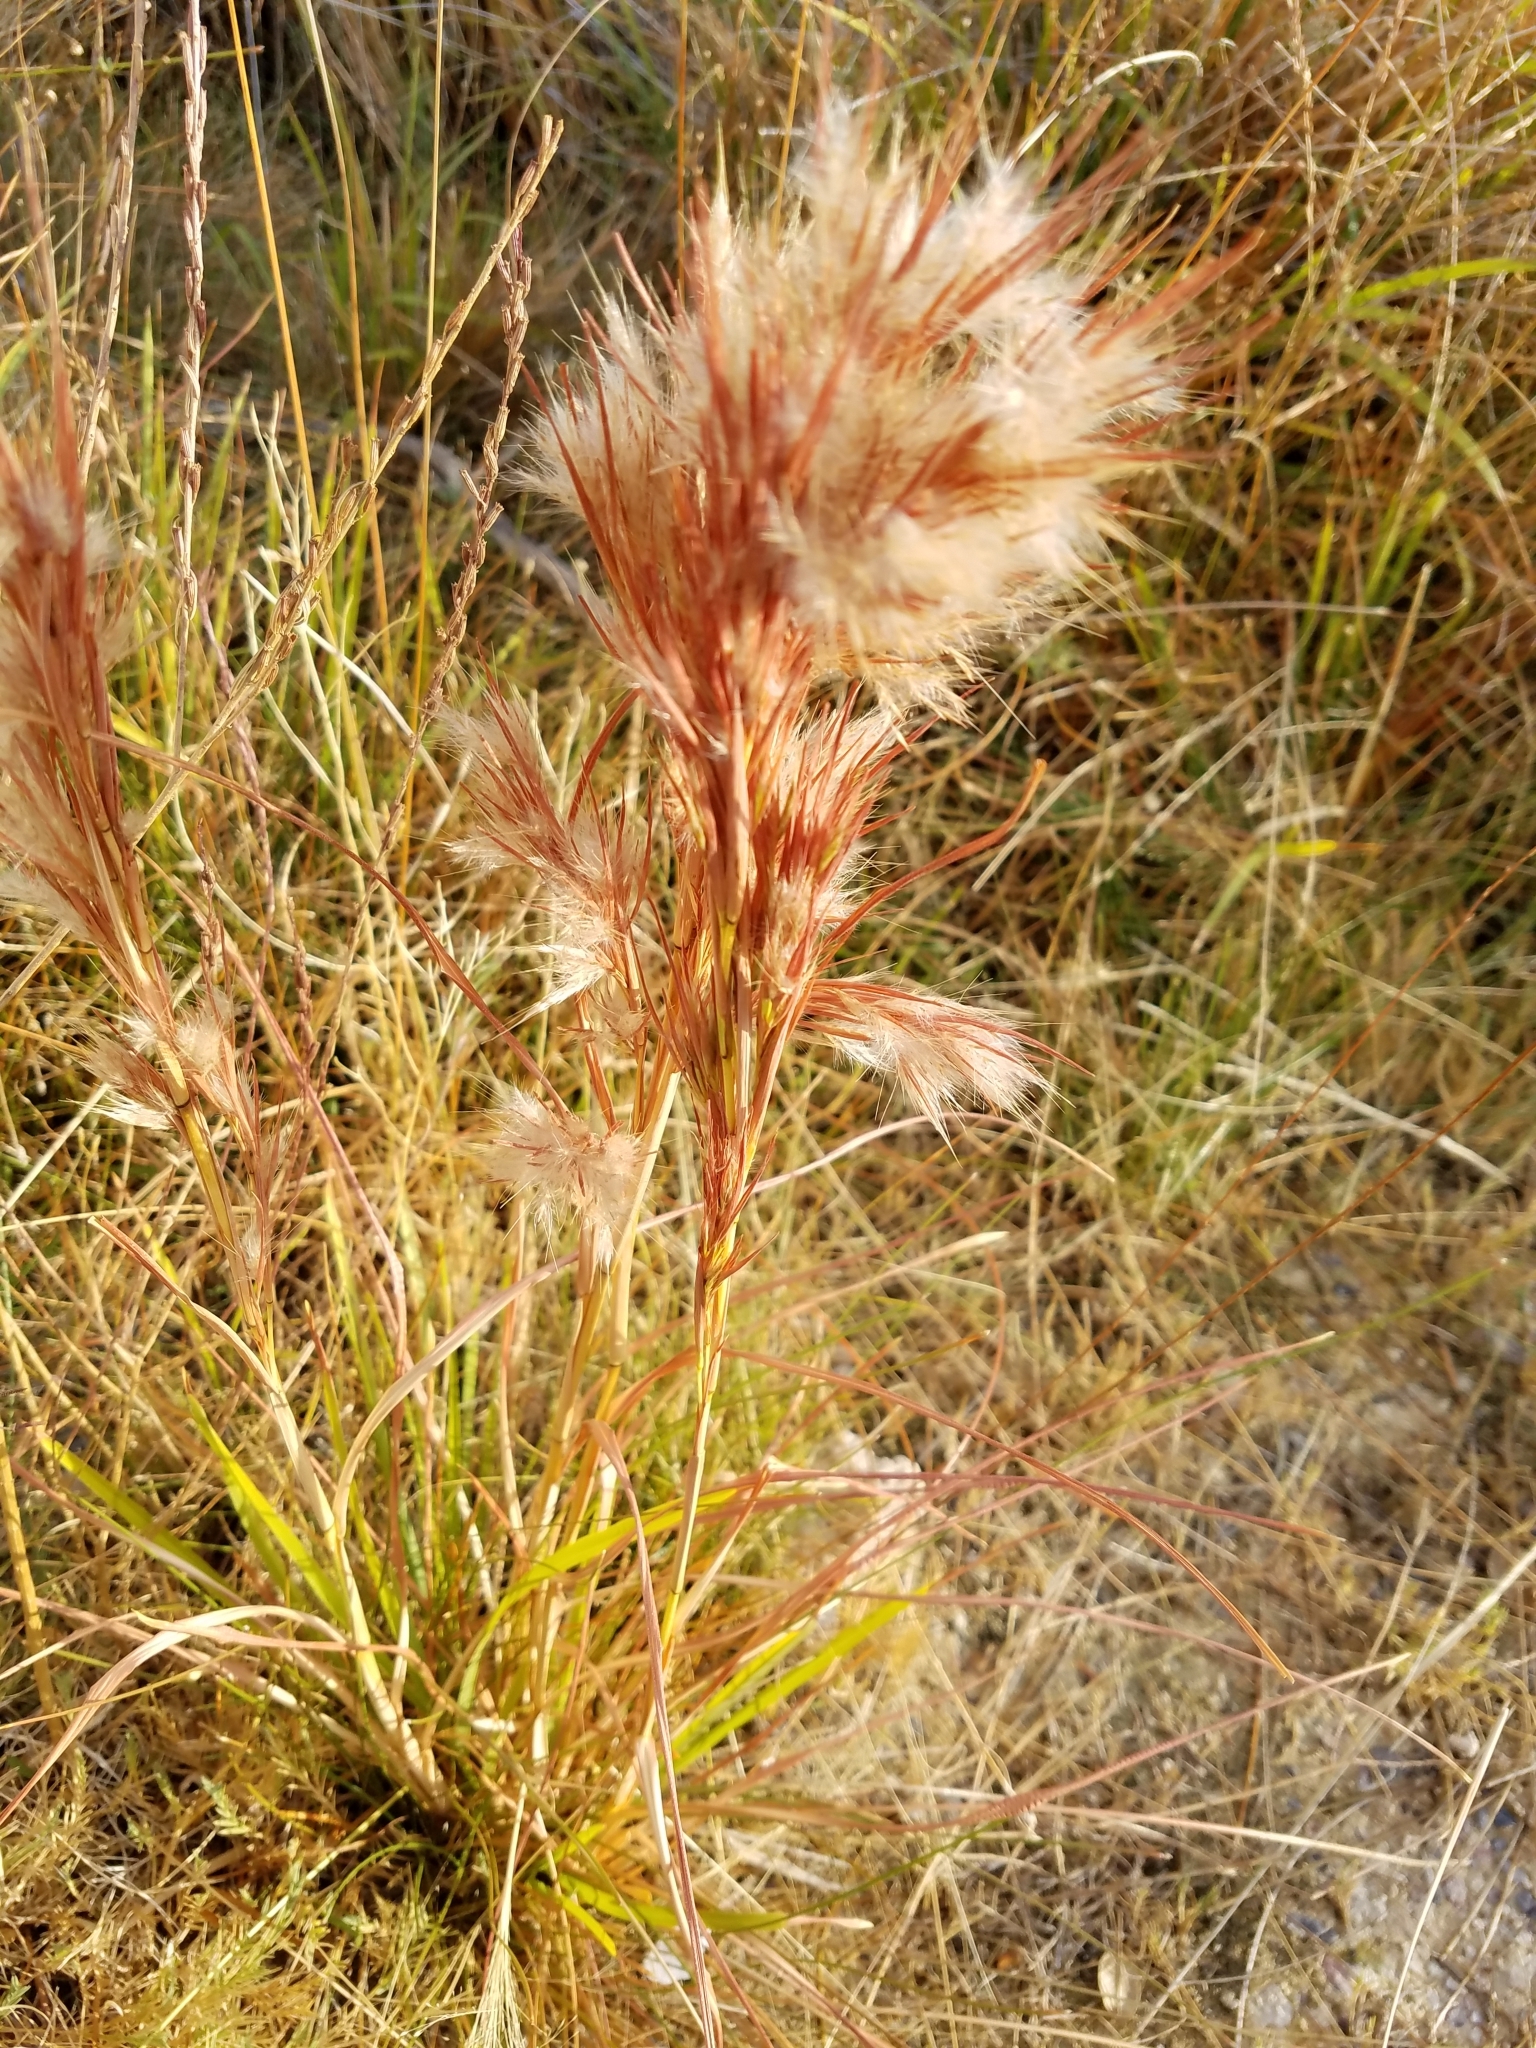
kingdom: Plantae
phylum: Tracheophyta
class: Liliopsida
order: Poales
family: Poaceae
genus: Andropogon
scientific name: Andropogon eremicus
